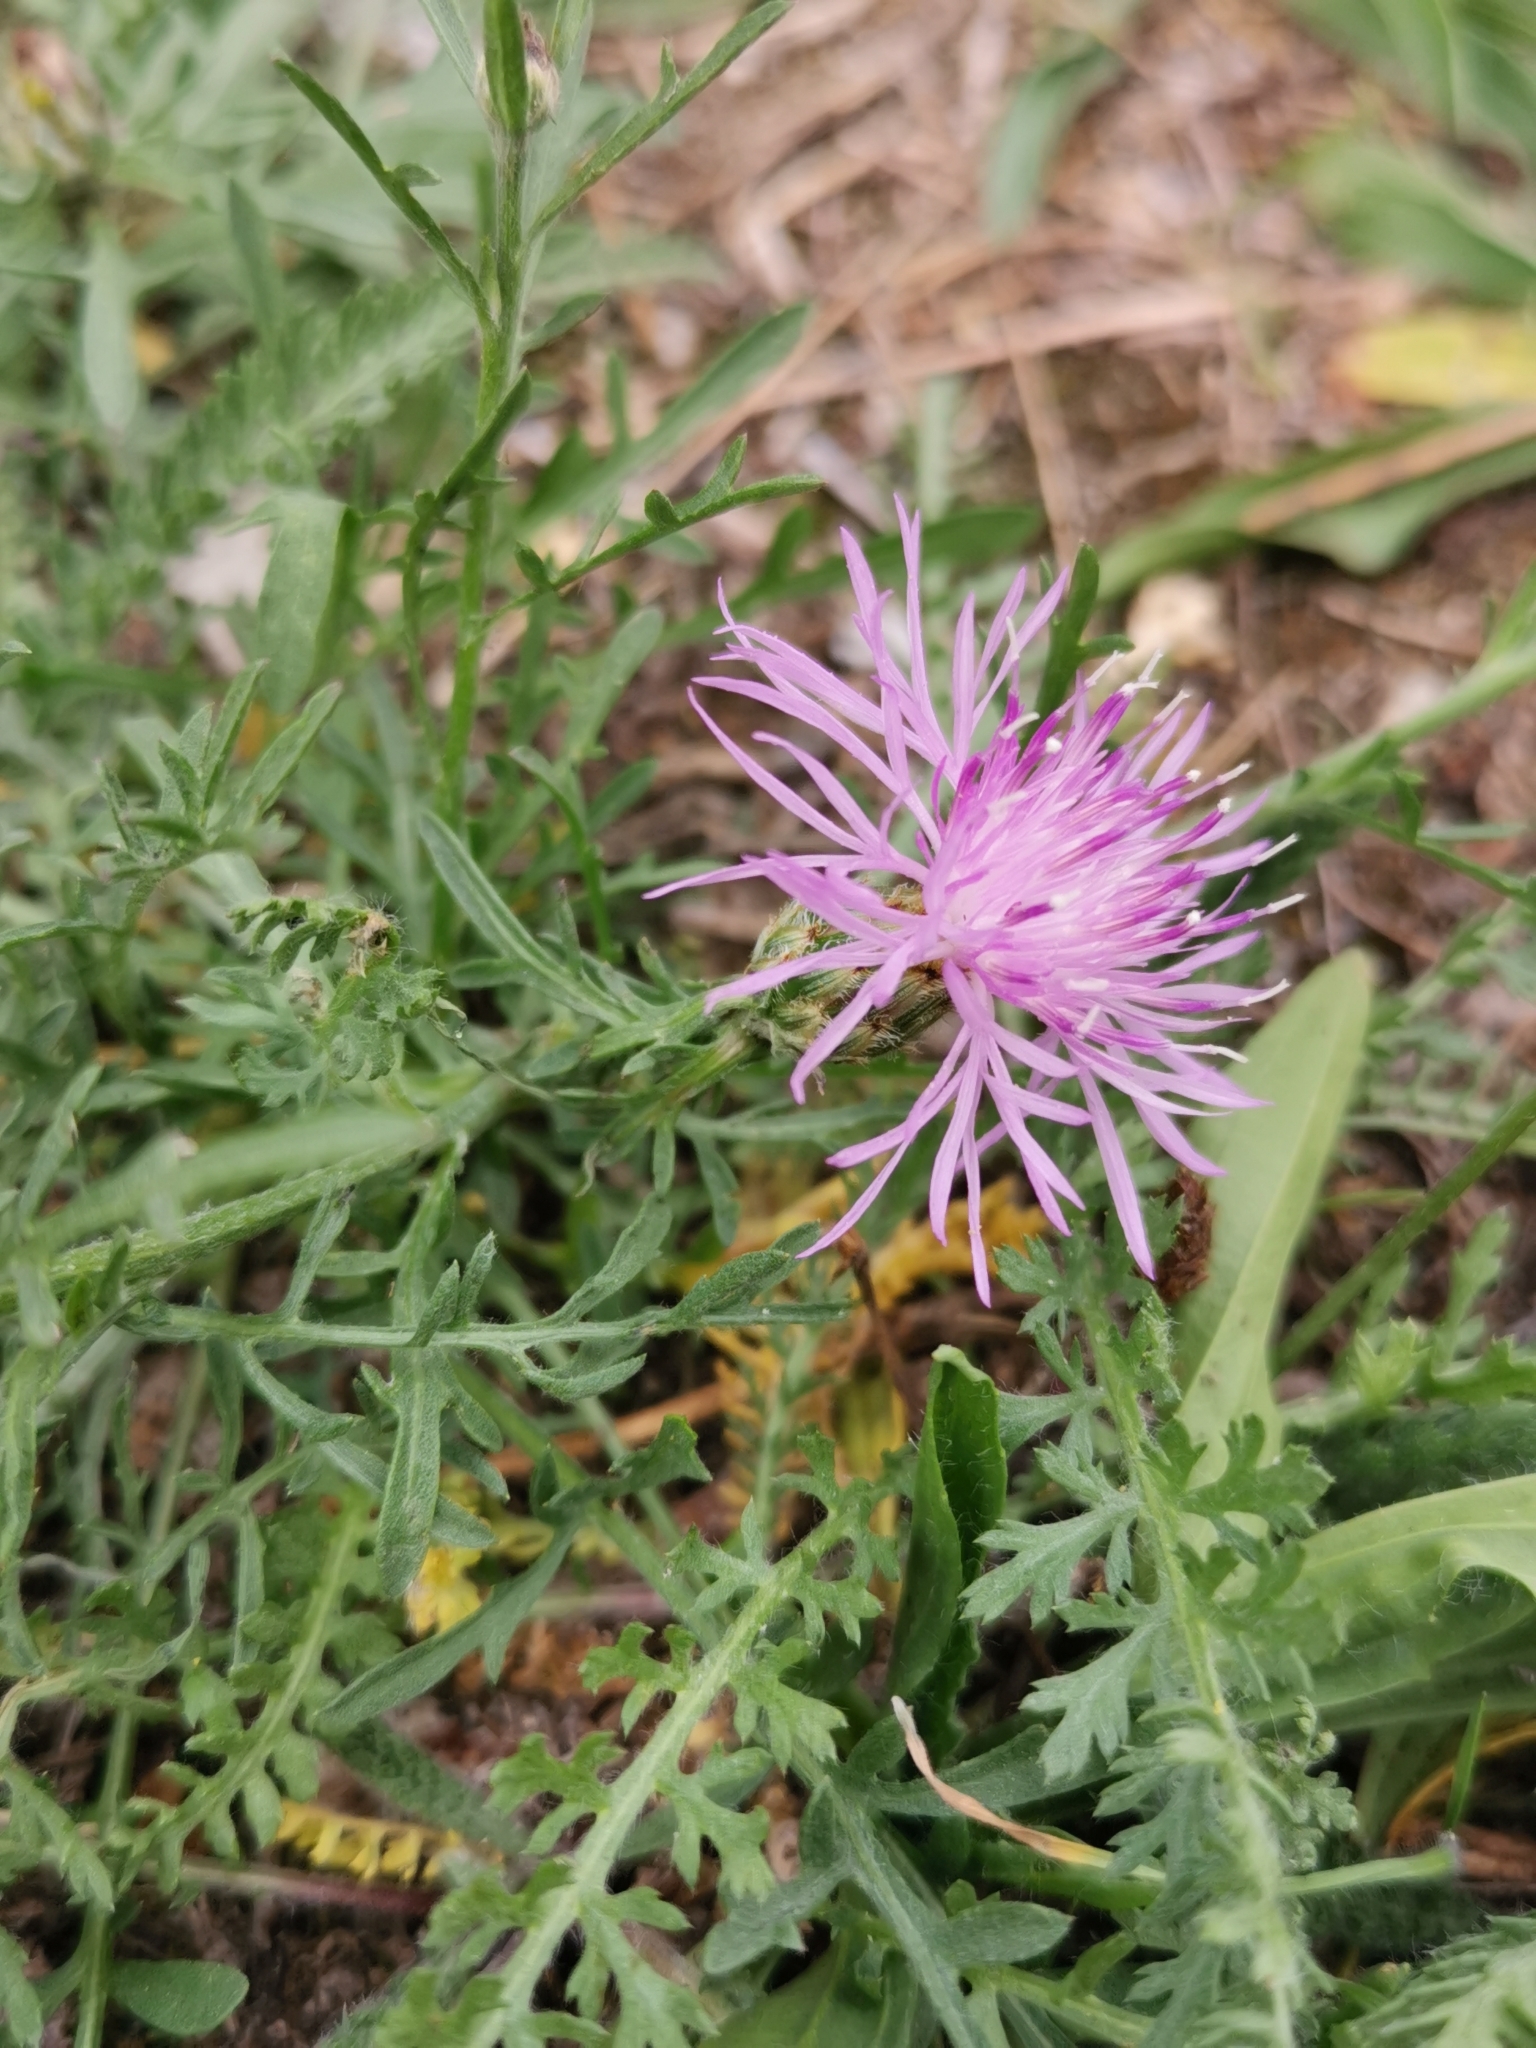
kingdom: Plantae
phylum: Tracheophyta
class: Magnoliopsida
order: Asterales
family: Asteraceae
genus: Centaurea
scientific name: Centaurea stoebe
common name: Spotted knapweed
